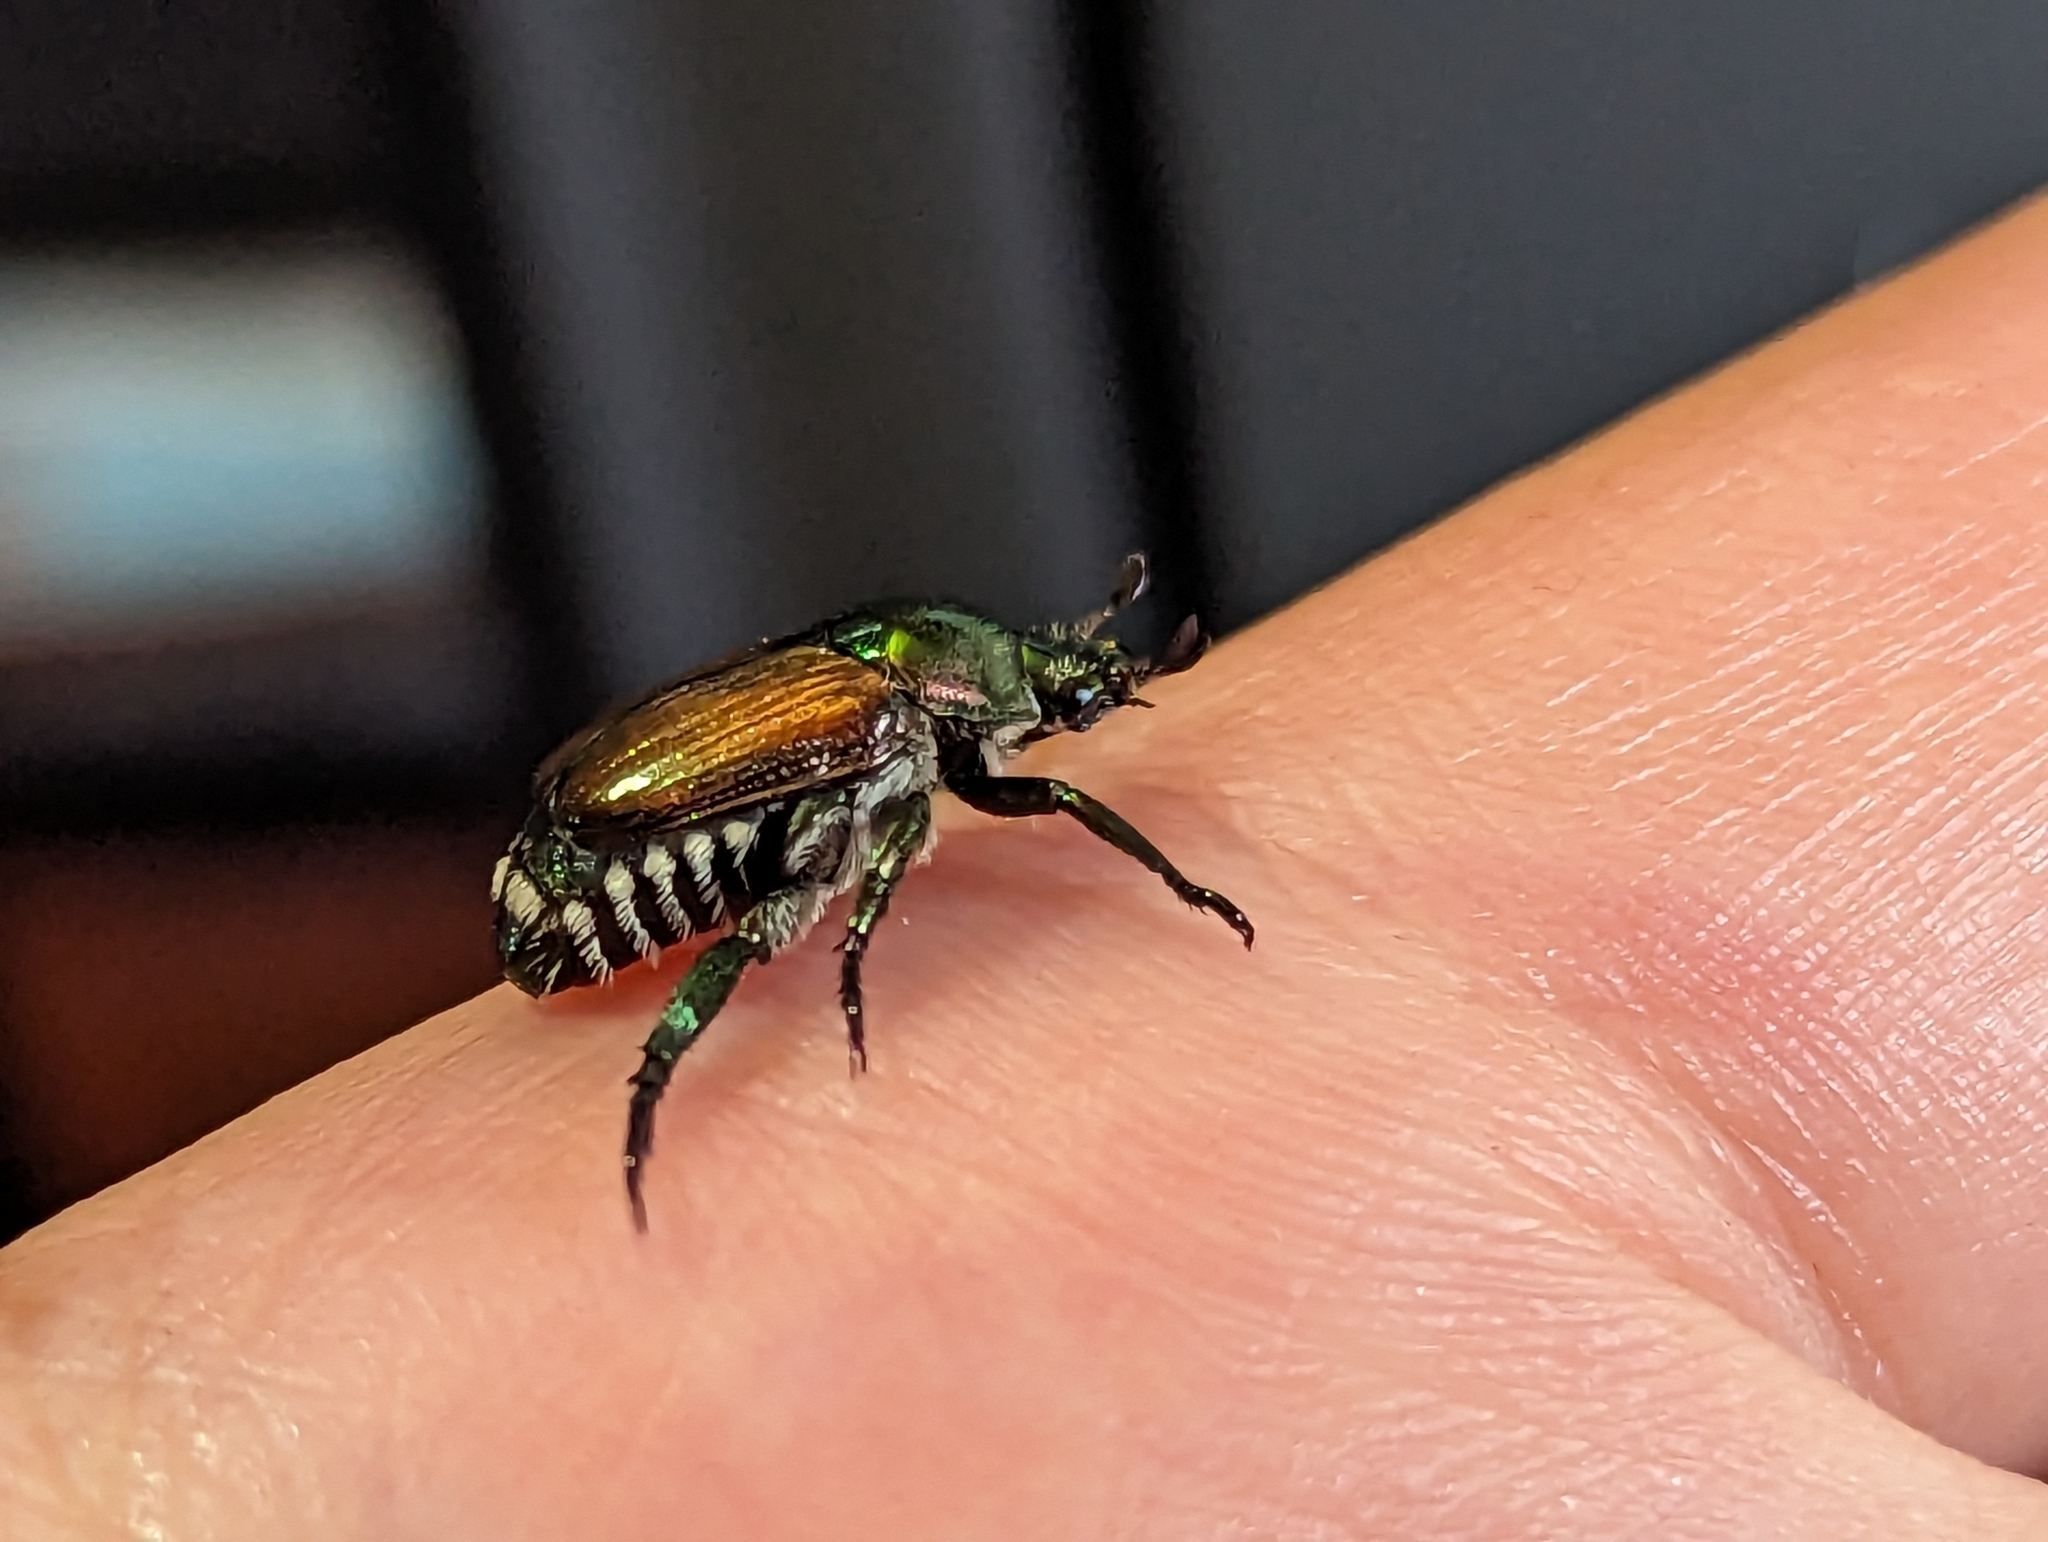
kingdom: Animalia
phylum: Arthropoda
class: Insecta
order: Coleoptera
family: Scarabaeidae
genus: Popillia
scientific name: Popillia japonica
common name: Japanese beetle
